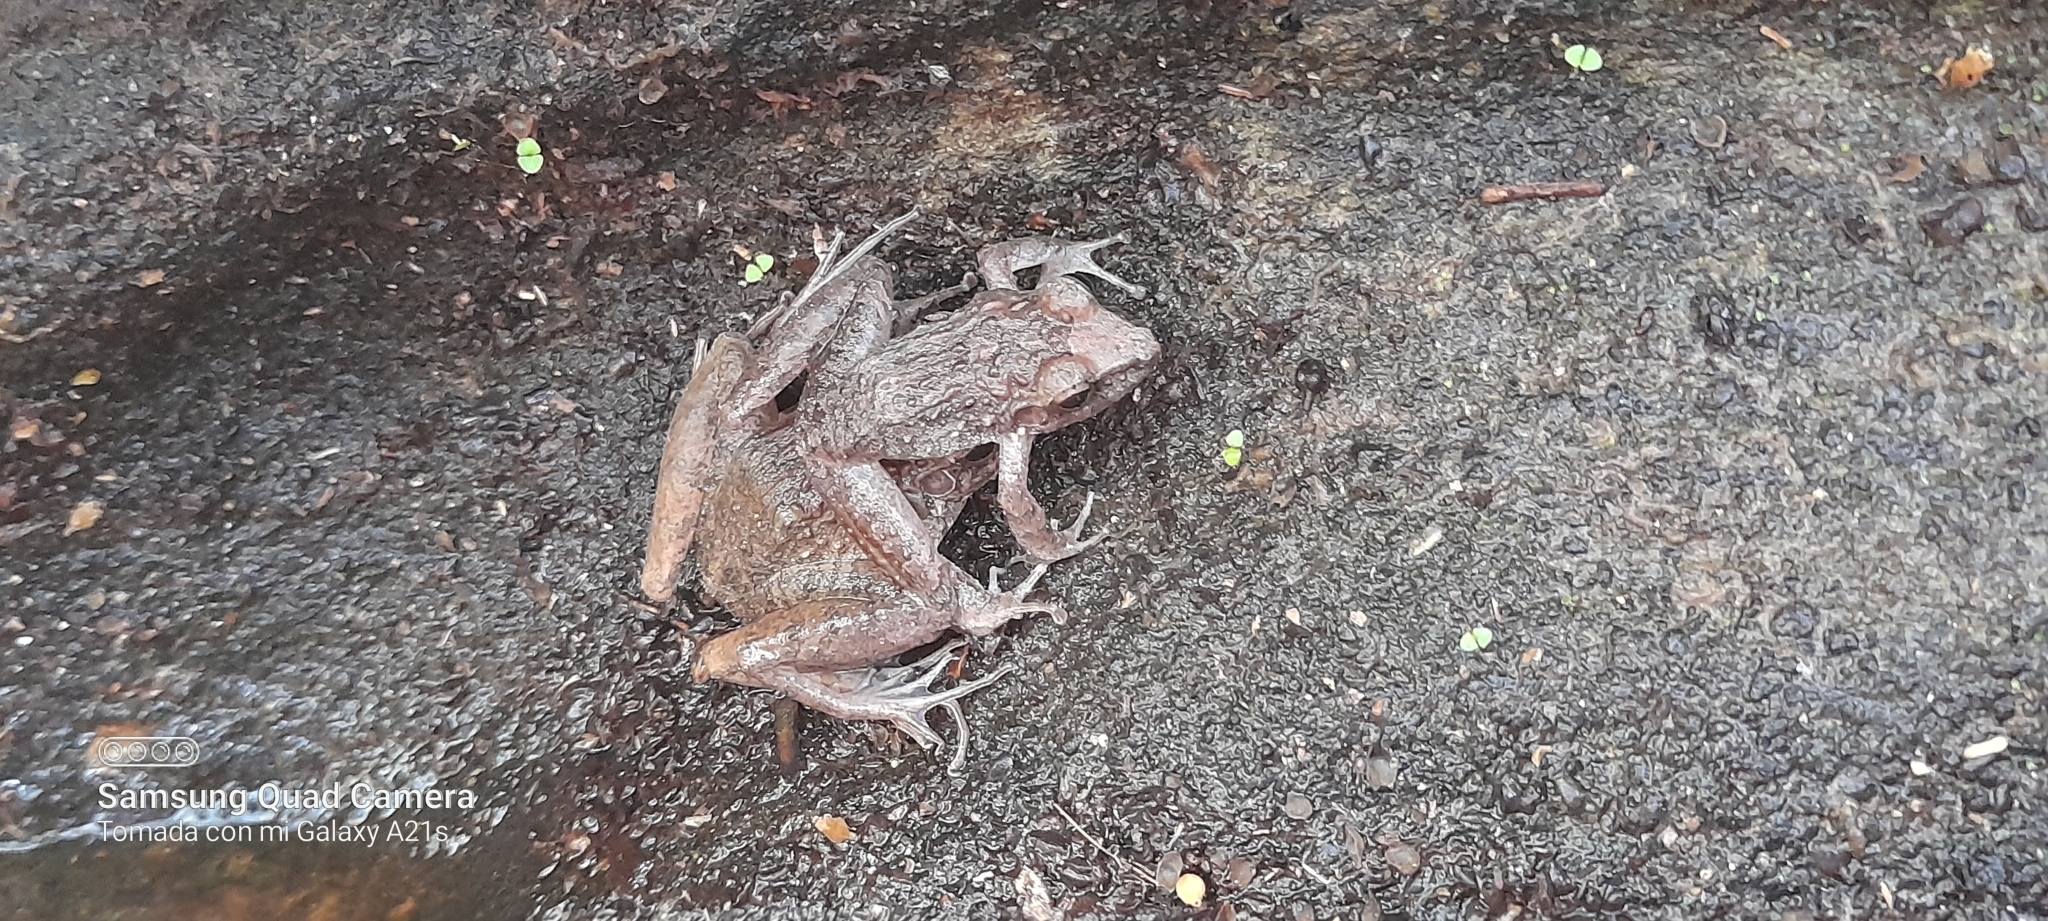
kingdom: Animalia
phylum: Chordata
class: Amphibia
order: Anura
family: Craugastoridae
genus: Craugastor
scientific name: Craugastor fitzingeri
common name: Fitzinger's robber frog
